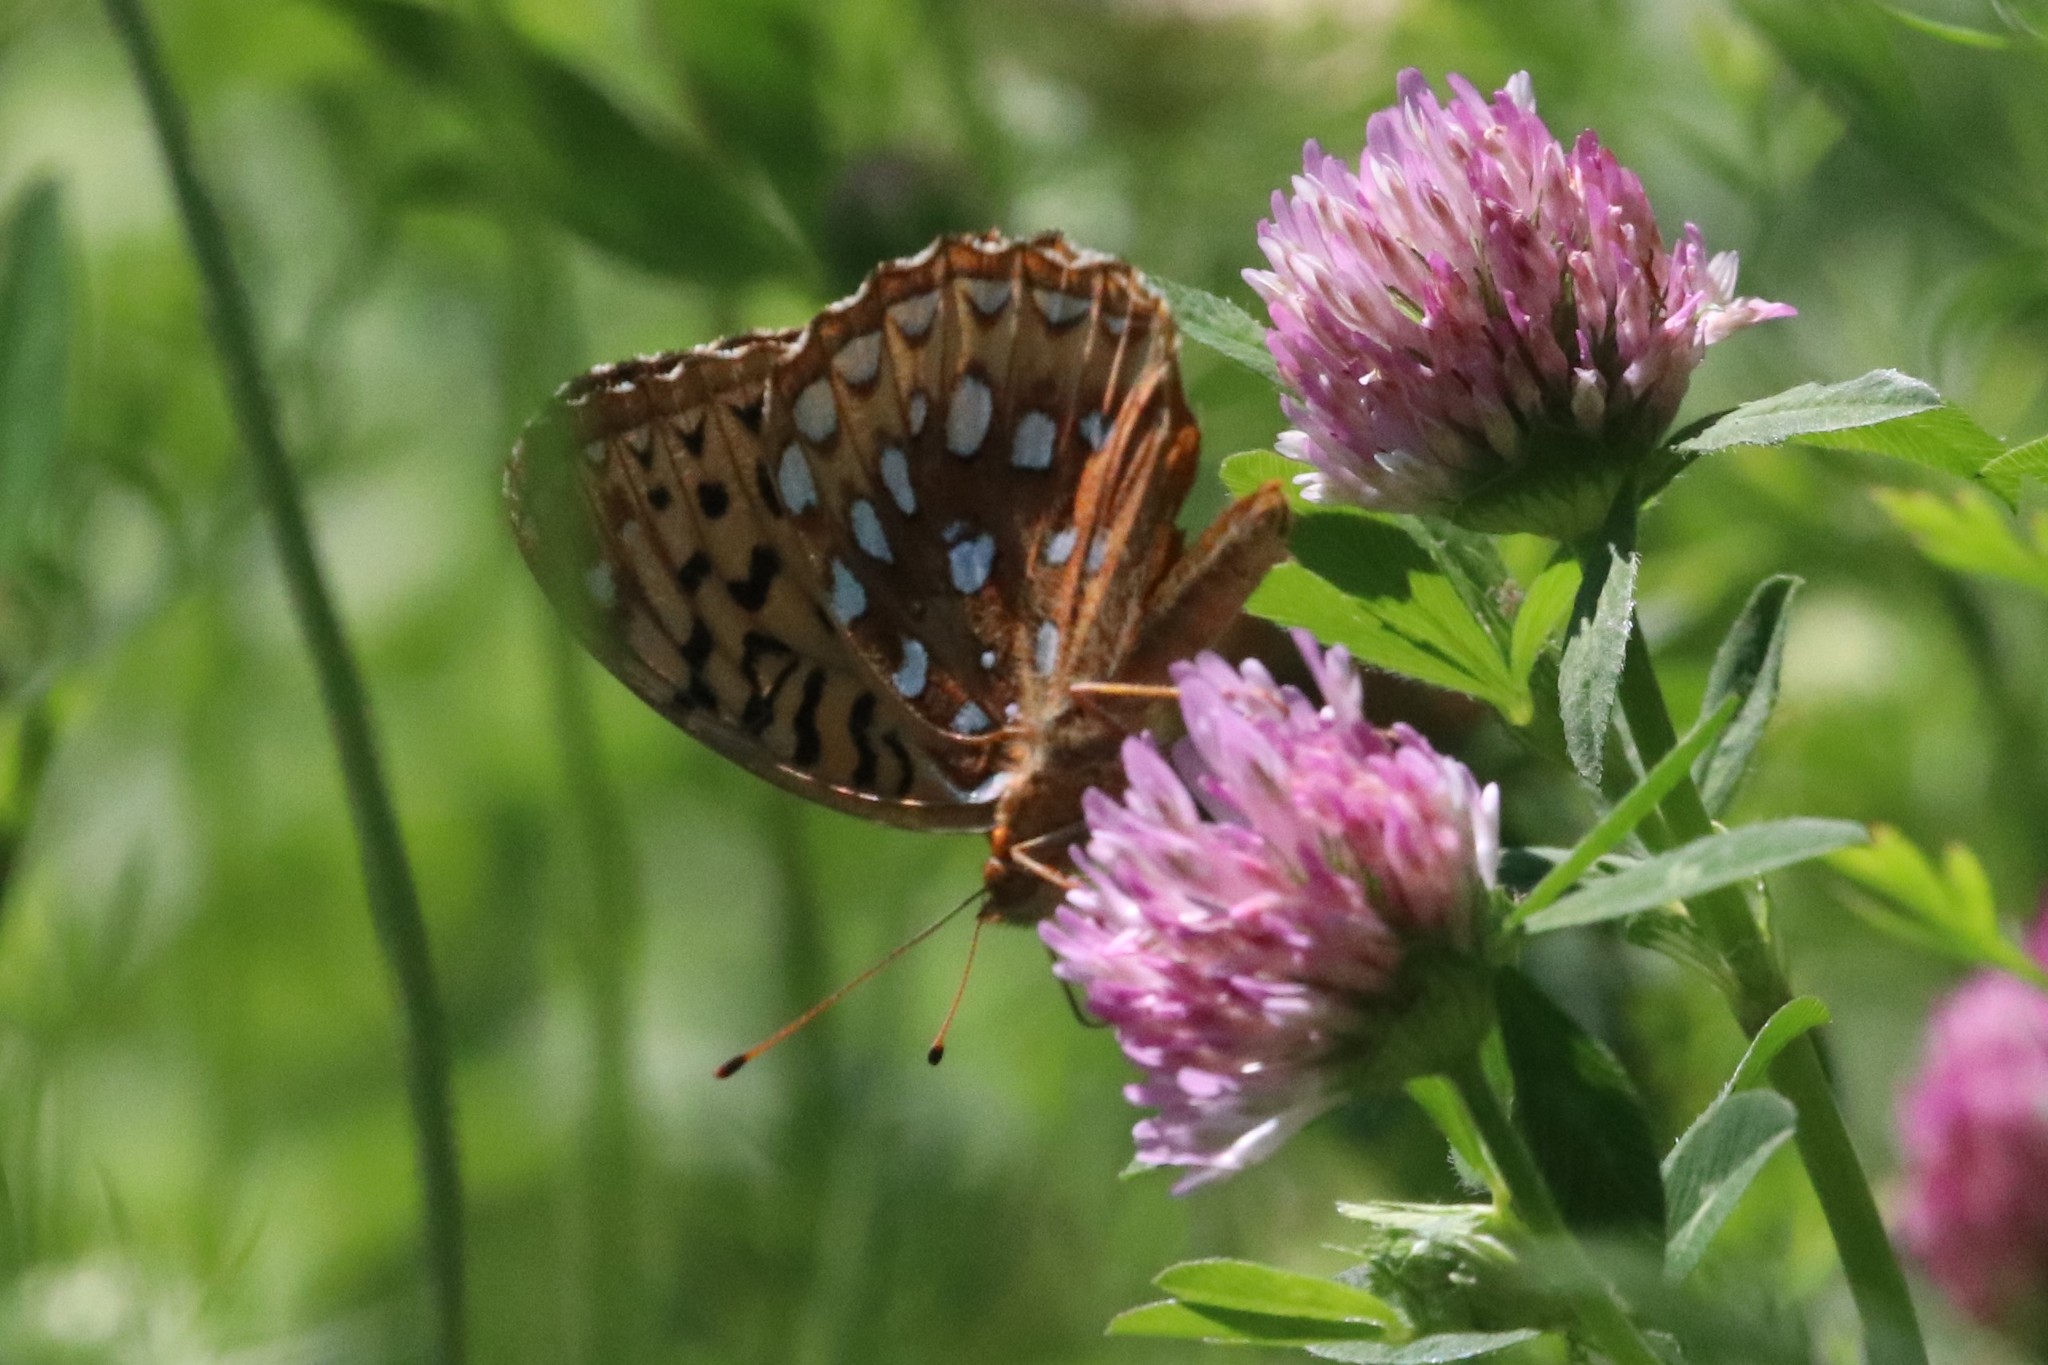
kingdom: Animalia
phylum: Arthropoda
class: Insecta
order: Lepidoptera
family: Nymphalidae
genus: Speyeria
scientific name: Speyeria cybele
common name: Great spangled fritillary
